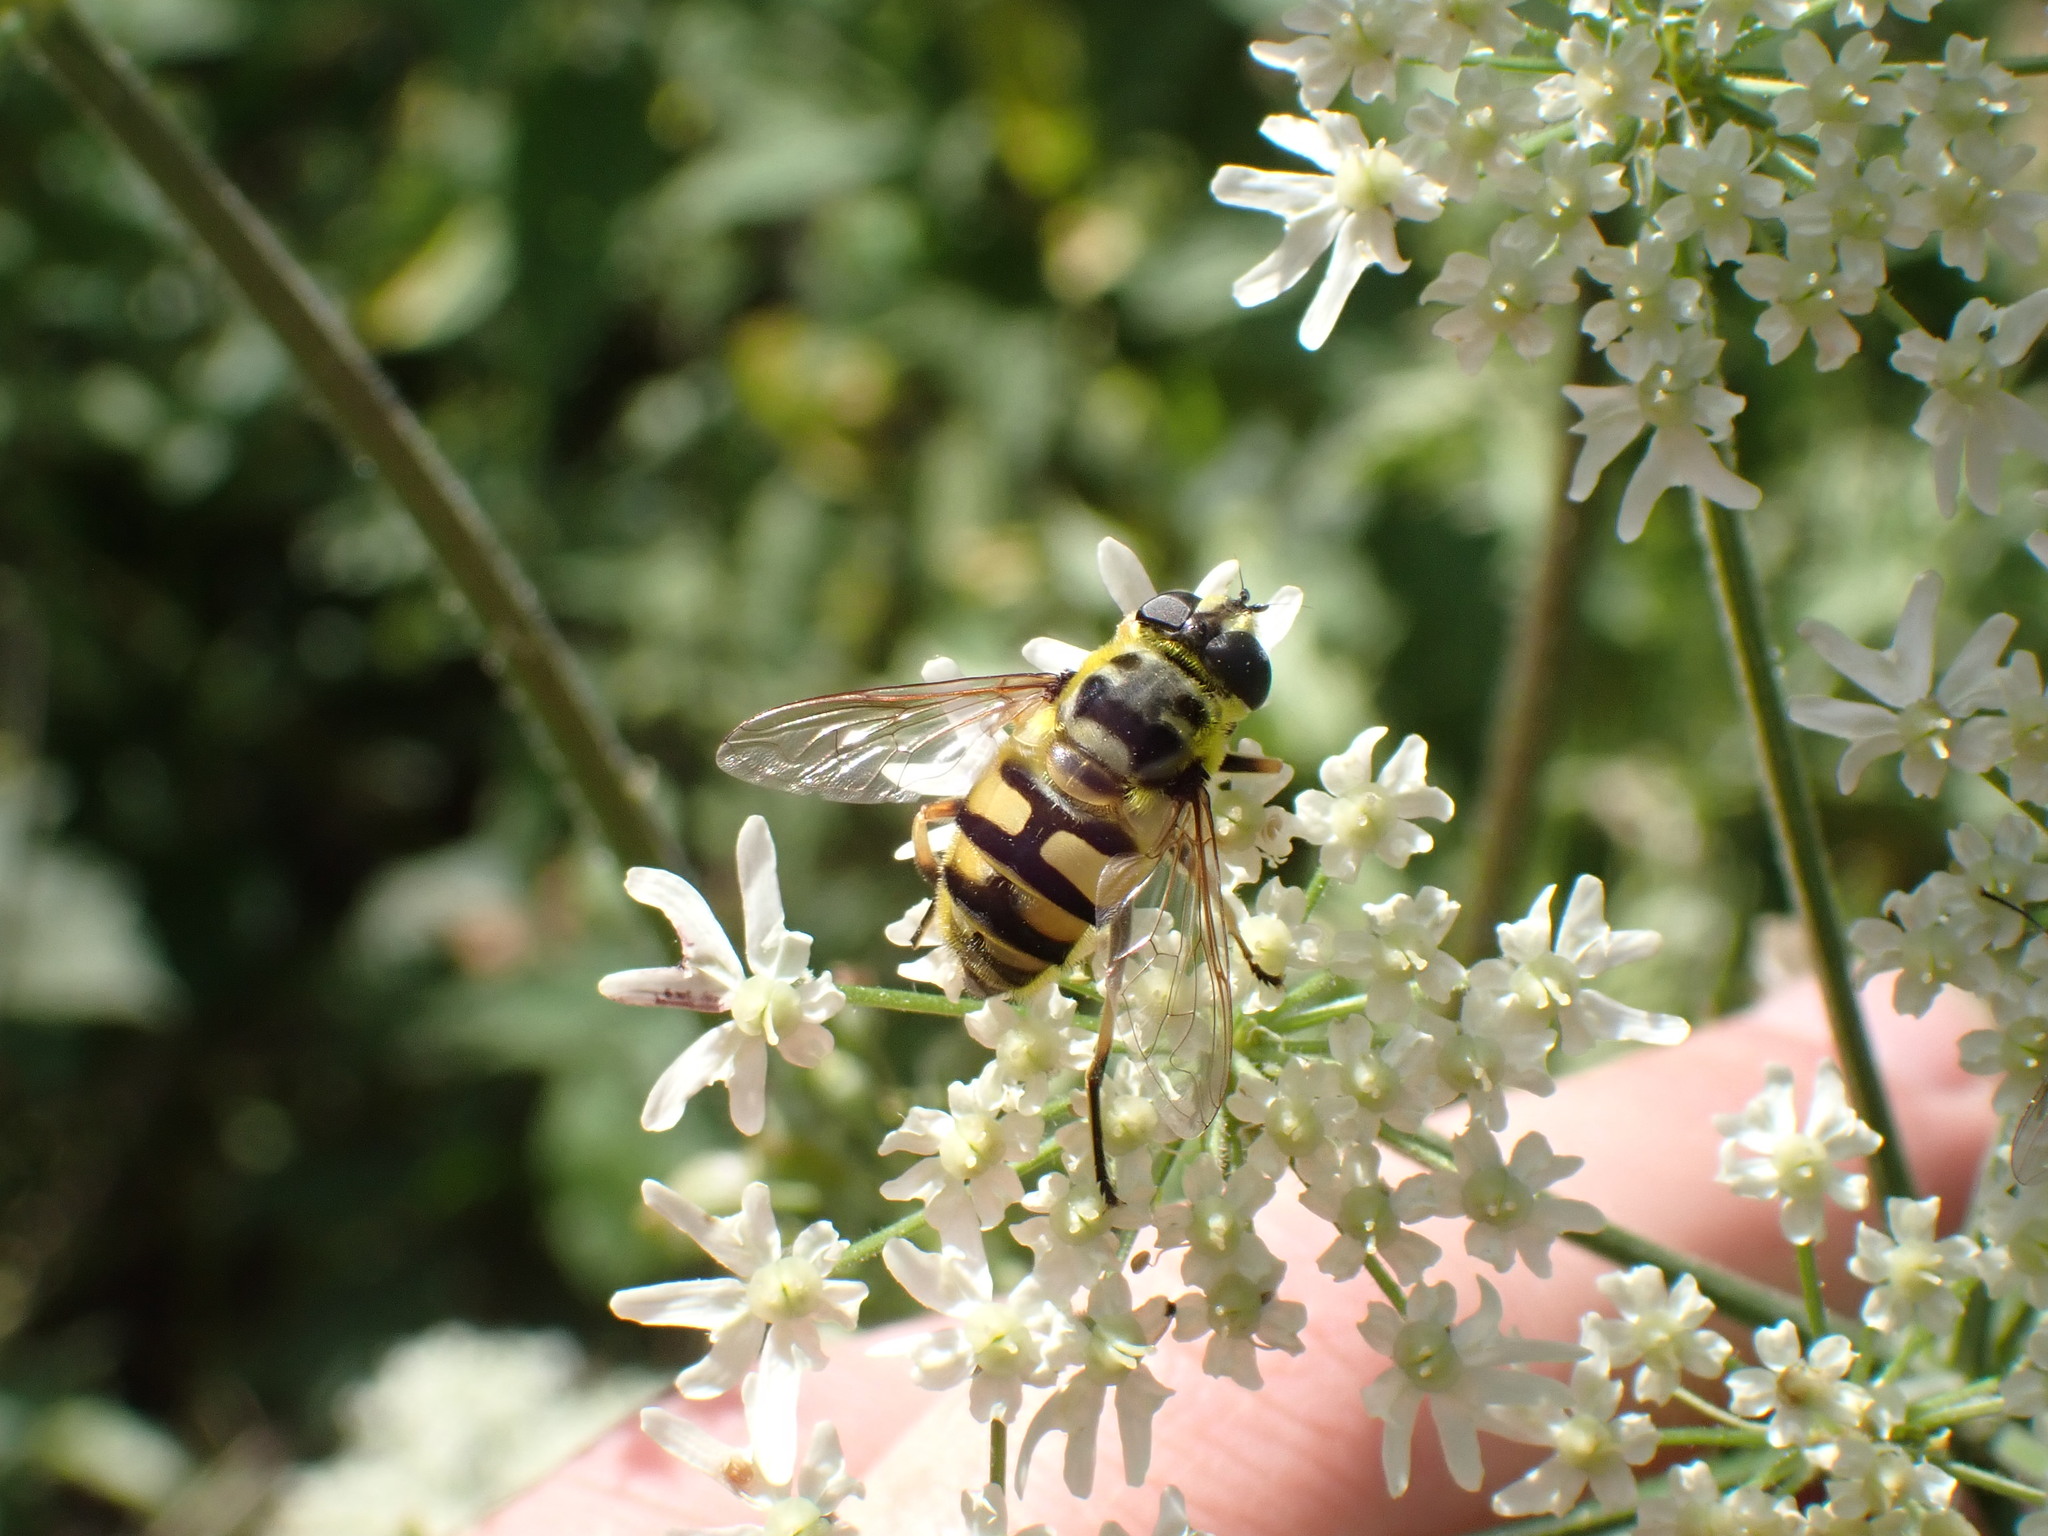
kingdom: Animalia
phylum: Arthropoda
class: Insecta
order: Diptera
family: Syrphidae
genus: Myathropa
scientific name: Myathropa florea
